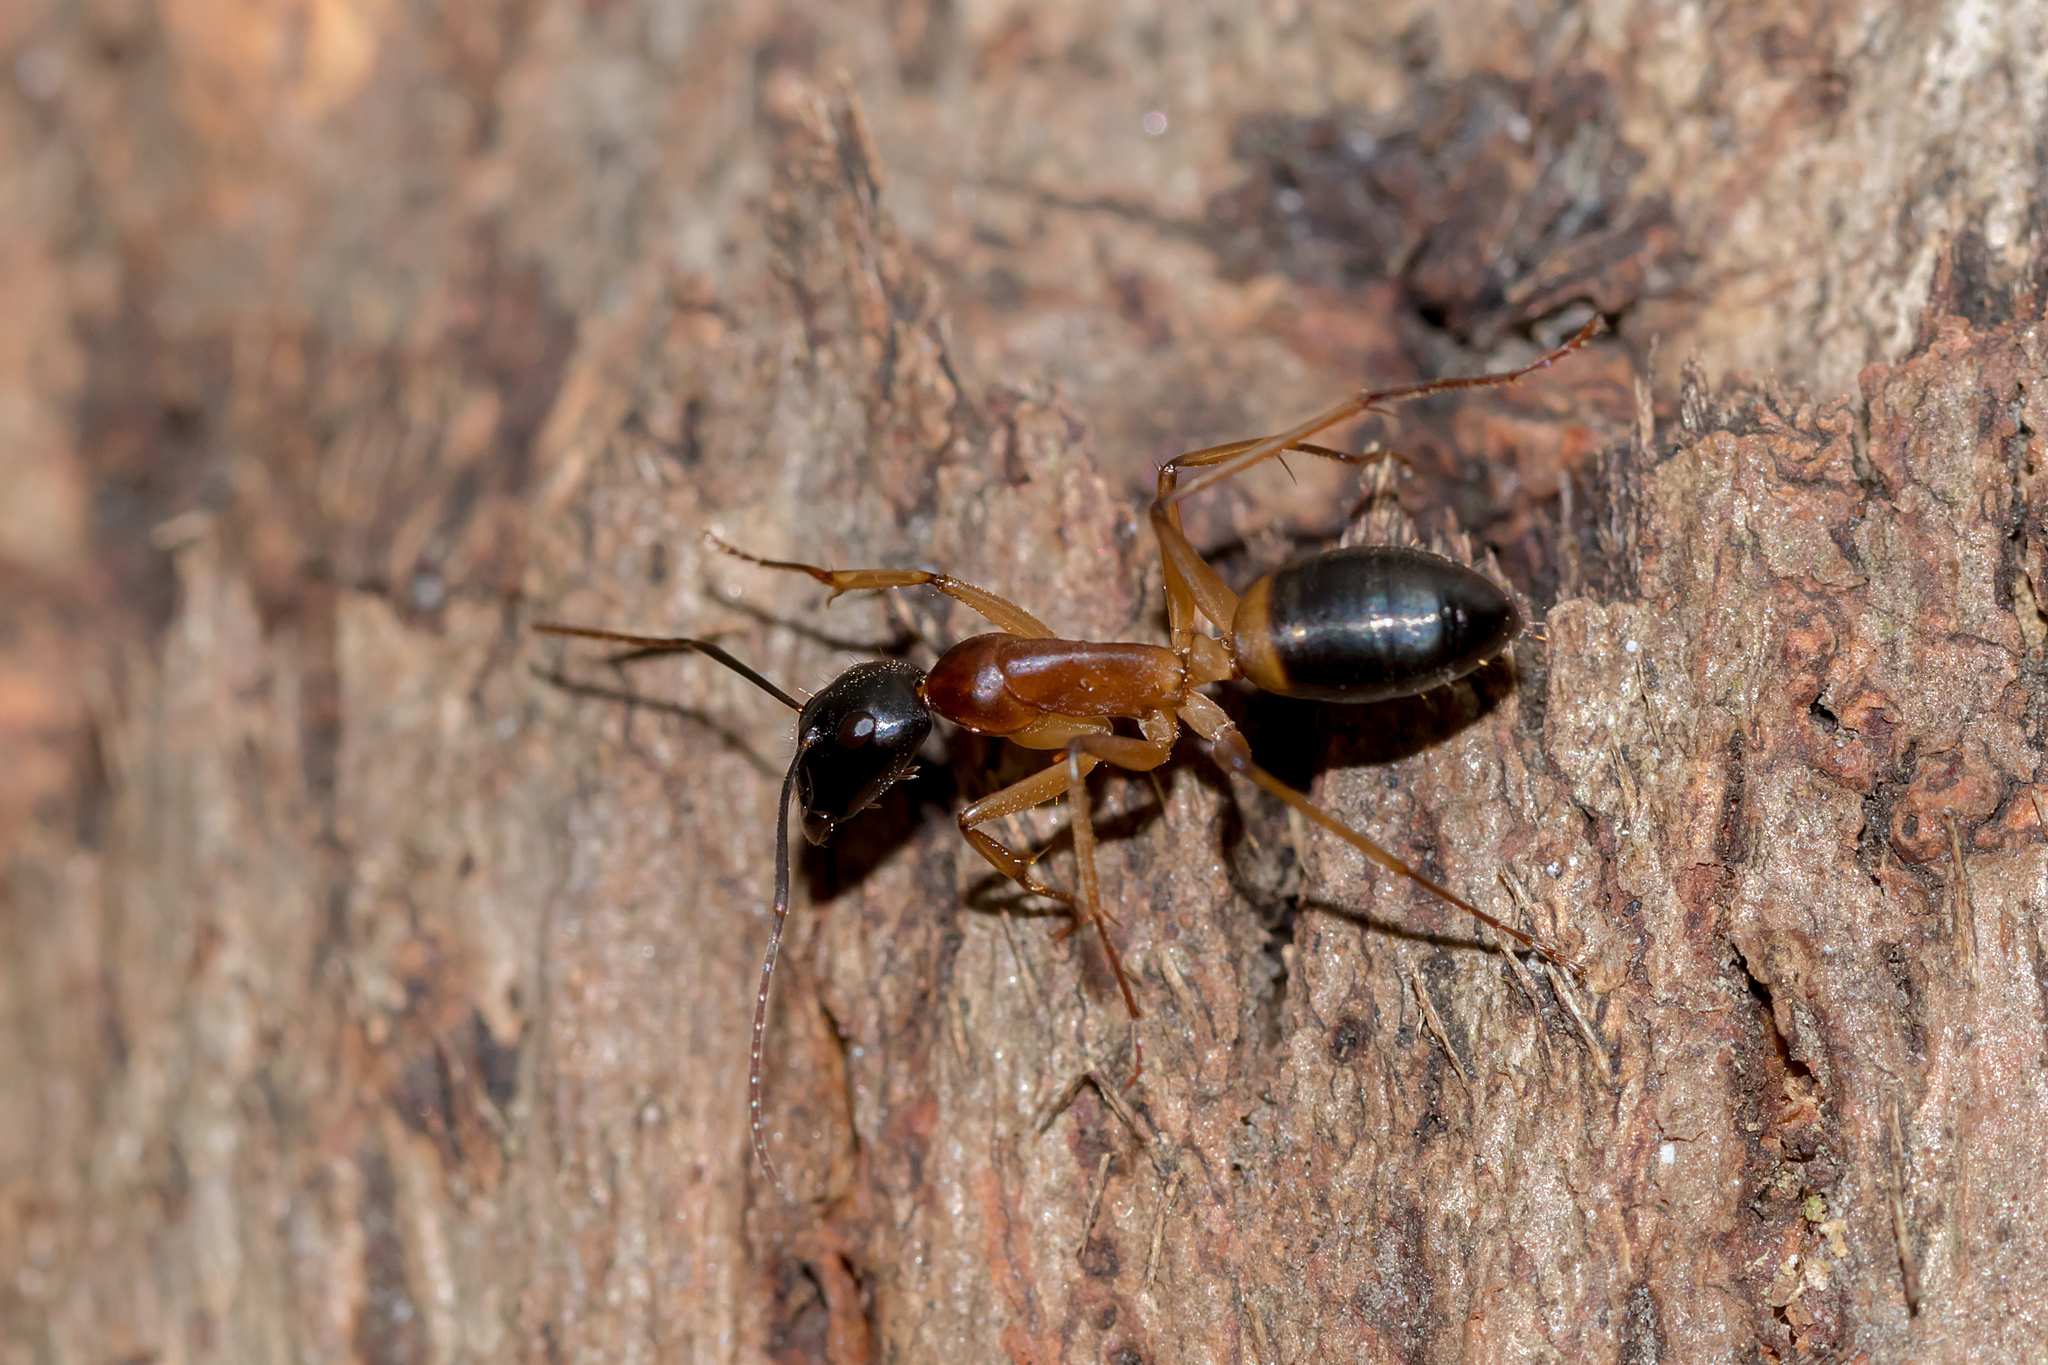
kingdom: Animalia
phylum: Arthropoda
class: Insecta
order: Hymenoptera
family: Formicidae
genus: Camponotus
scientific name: Camponotus consobrinus
